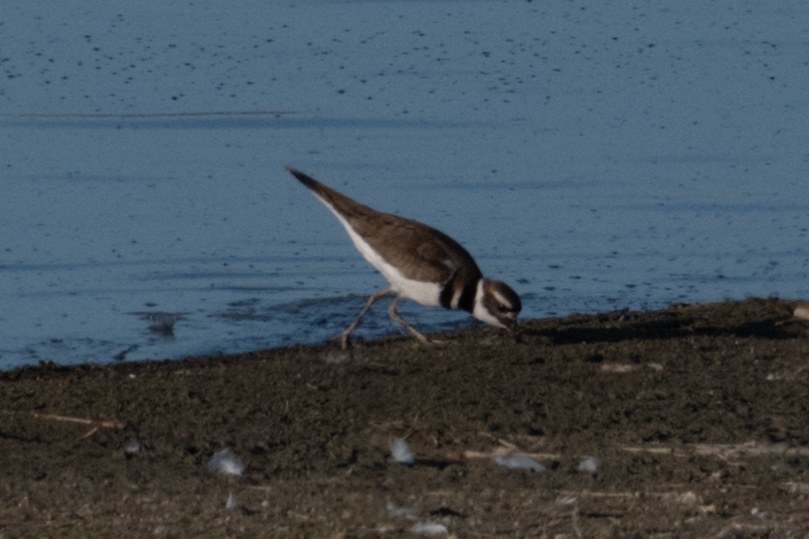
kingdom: Animalia
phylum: Chordata
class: Aves
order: Charadriiformes
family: Charadriidae
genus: Charadrius
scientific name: Charadrius vociferus
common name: Killdeer
